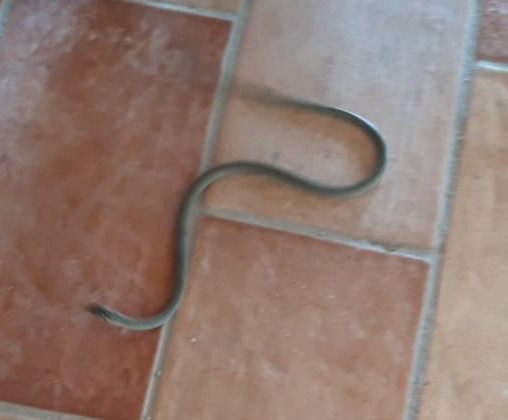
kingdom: Animalia
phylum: Chordata
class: Squamata
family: Colubridae
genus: Hierophis
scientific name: Hierophis viridiflavus
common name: Green whip snake
